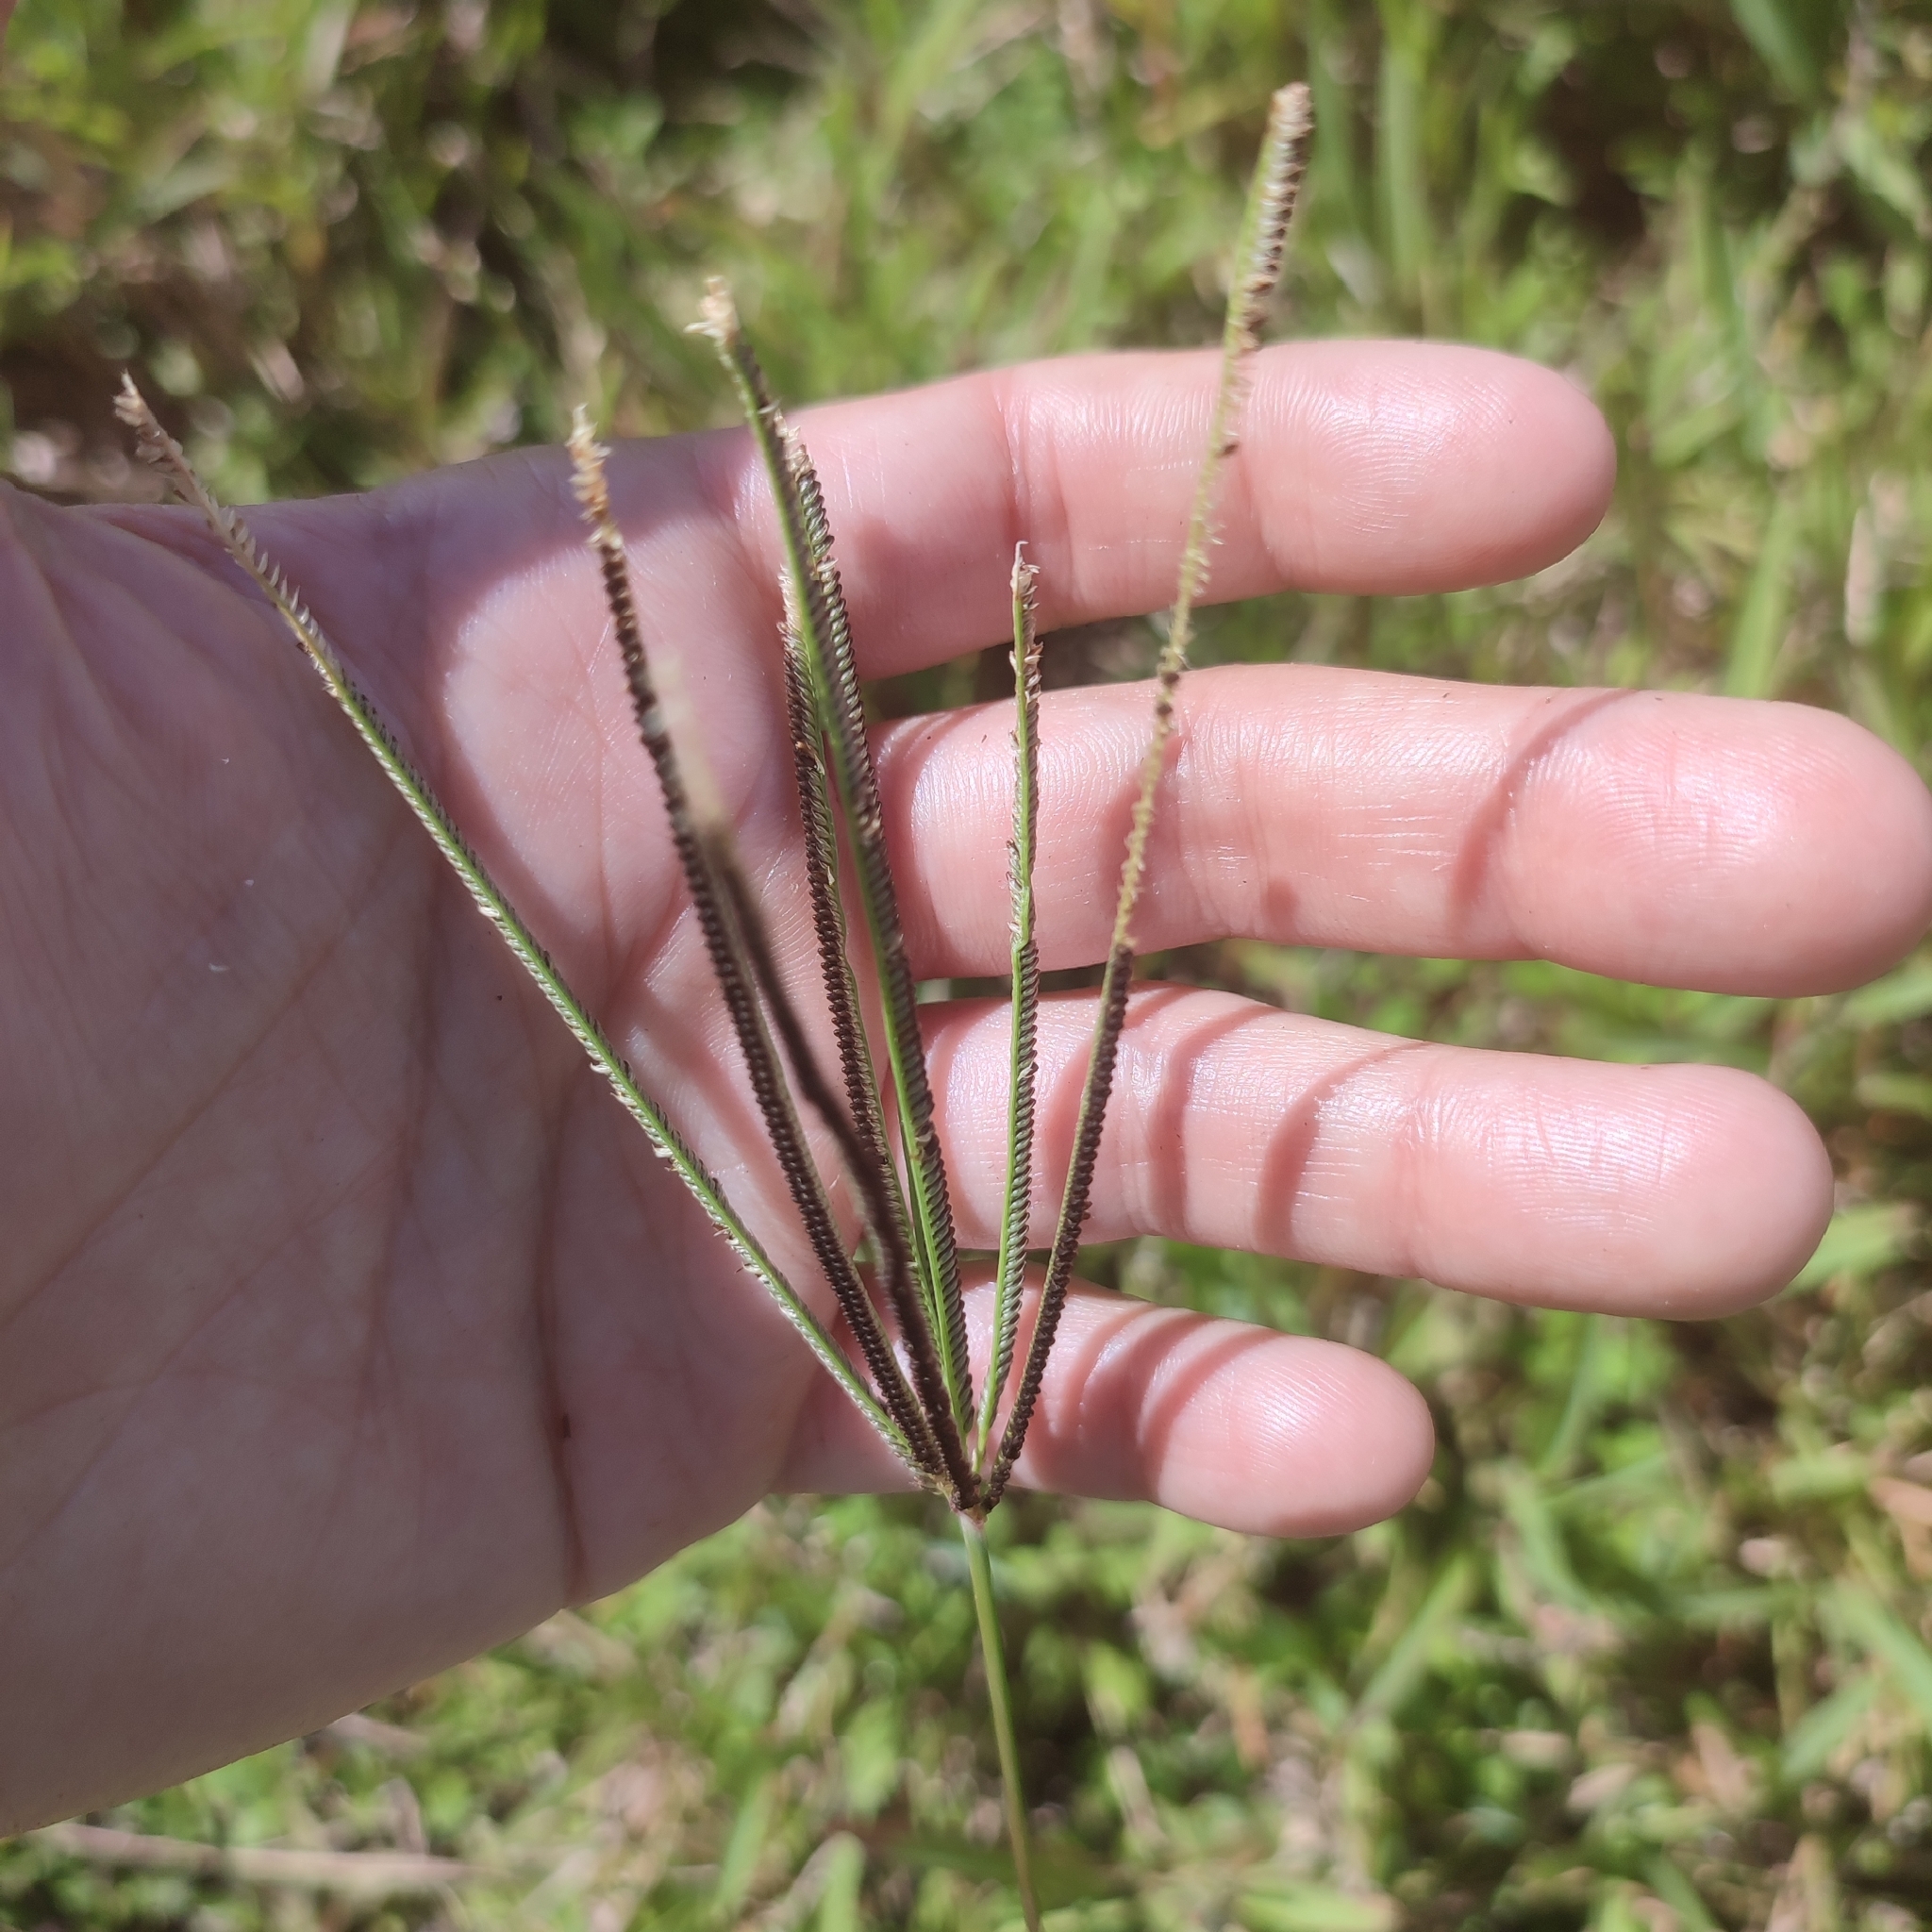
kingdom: Plantae
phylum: Tracheophyta
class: Liliopsida
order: Poales
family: Poaceae
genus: Eustachys
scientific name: Eustachys petraea
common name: Pinewoods fingergrass
